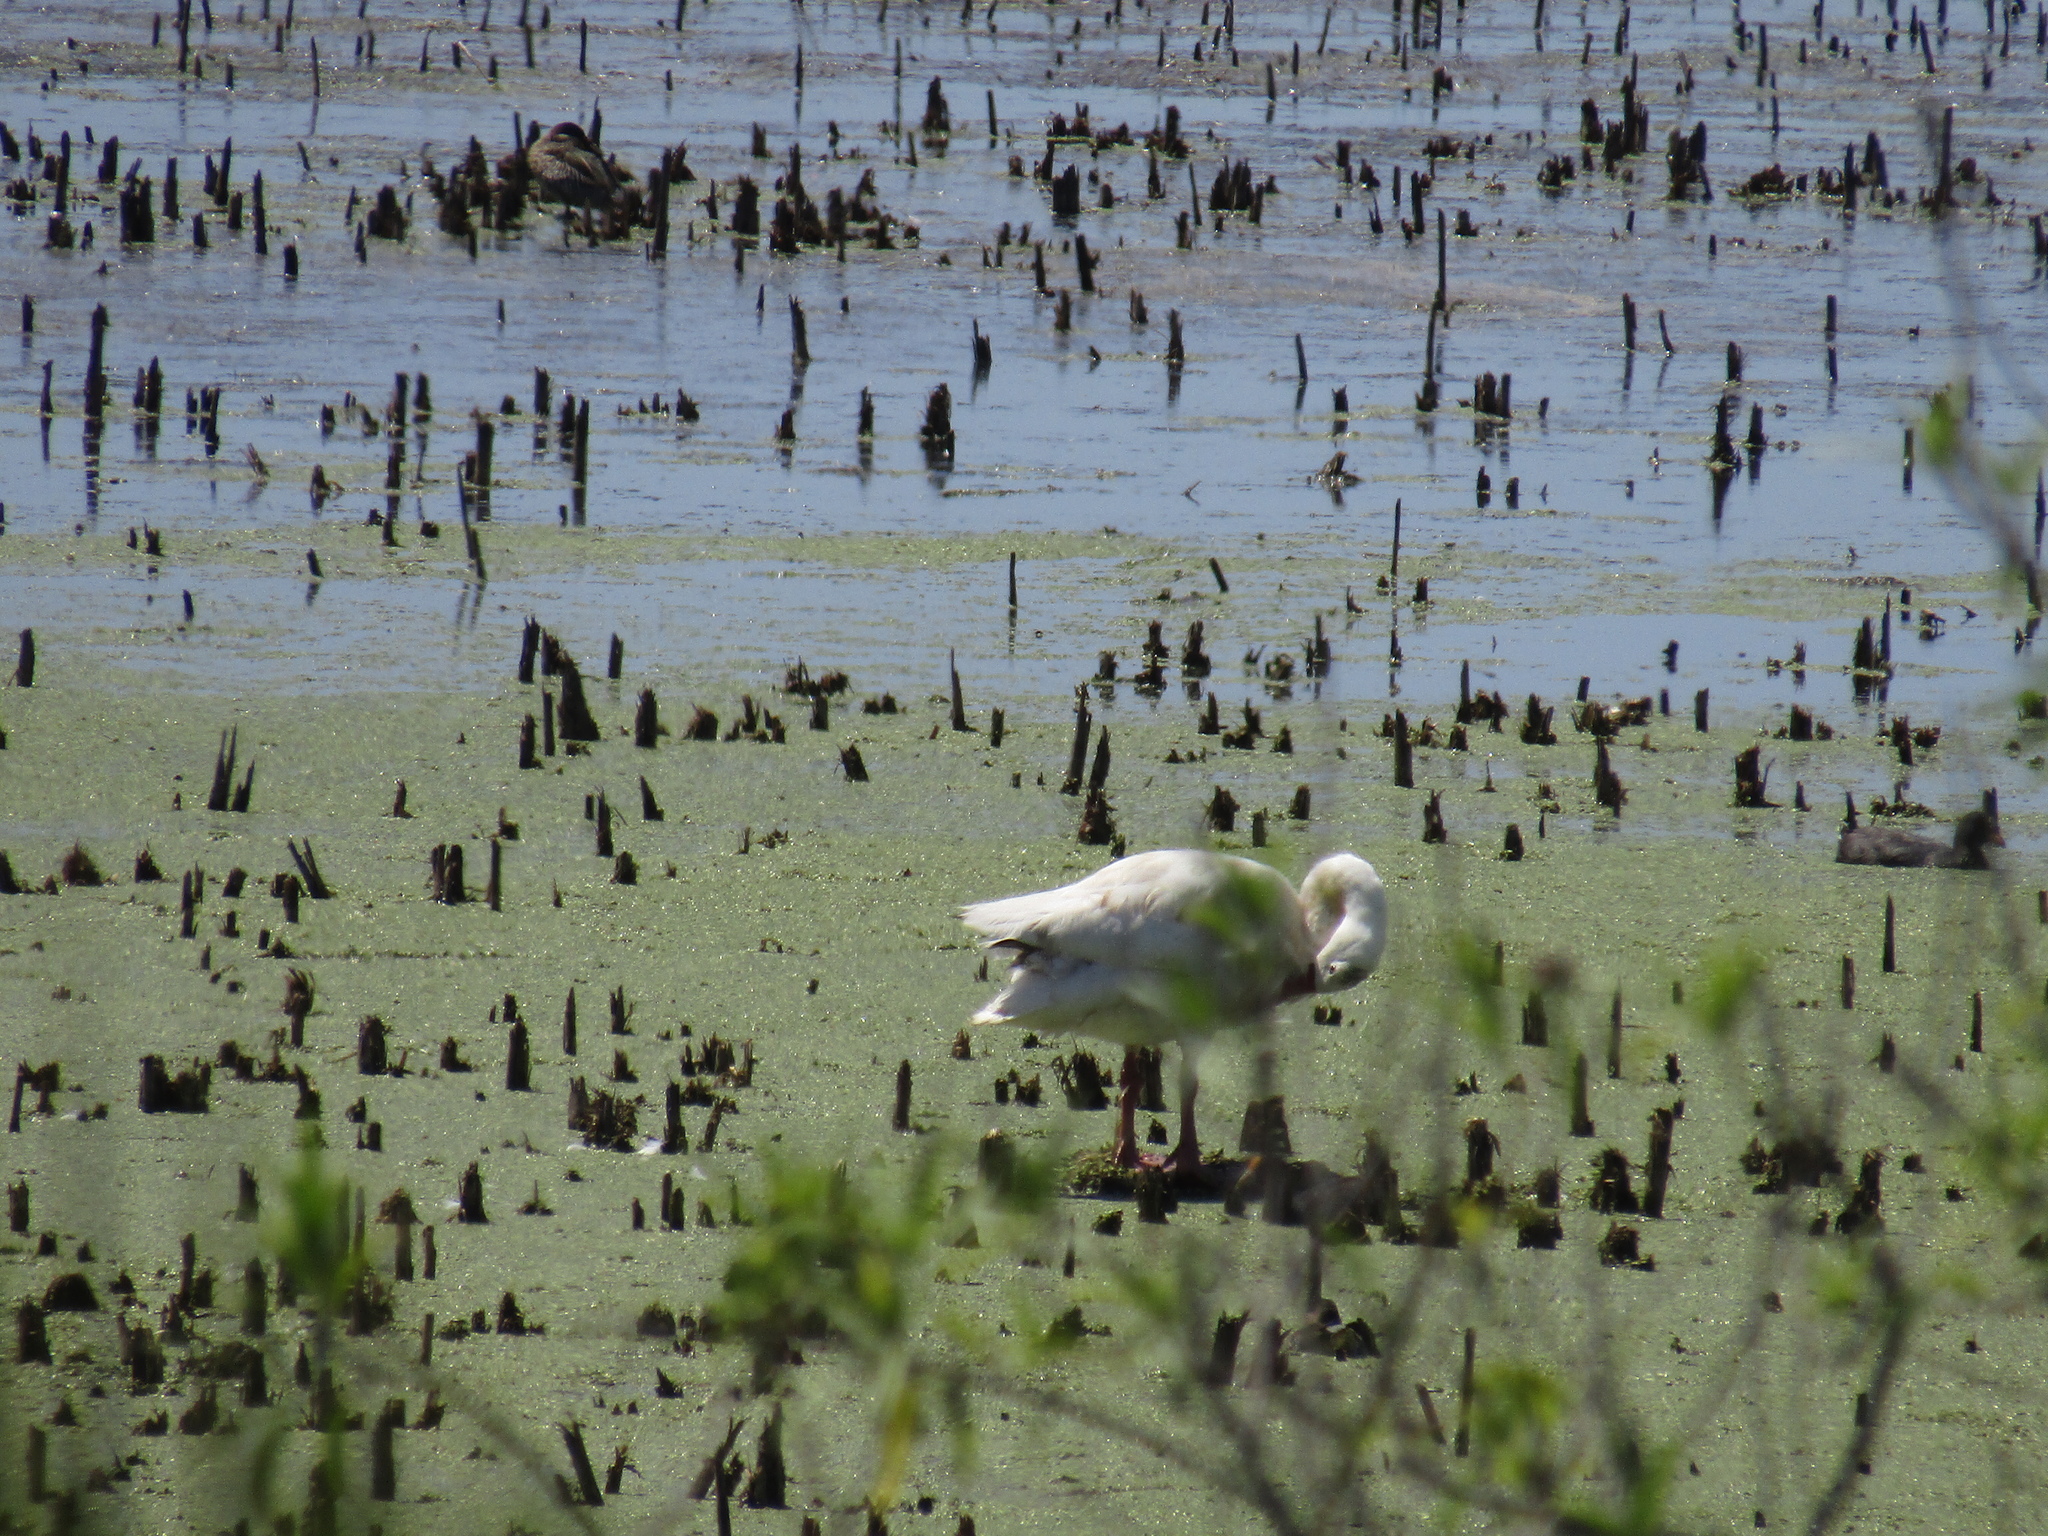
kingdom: Animalia
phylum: Chordata
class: Aves
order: Anseriformes
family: Anatidae
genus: Coscoroba
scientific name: Coscoroba coscoroba
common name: Coscoroba swan
